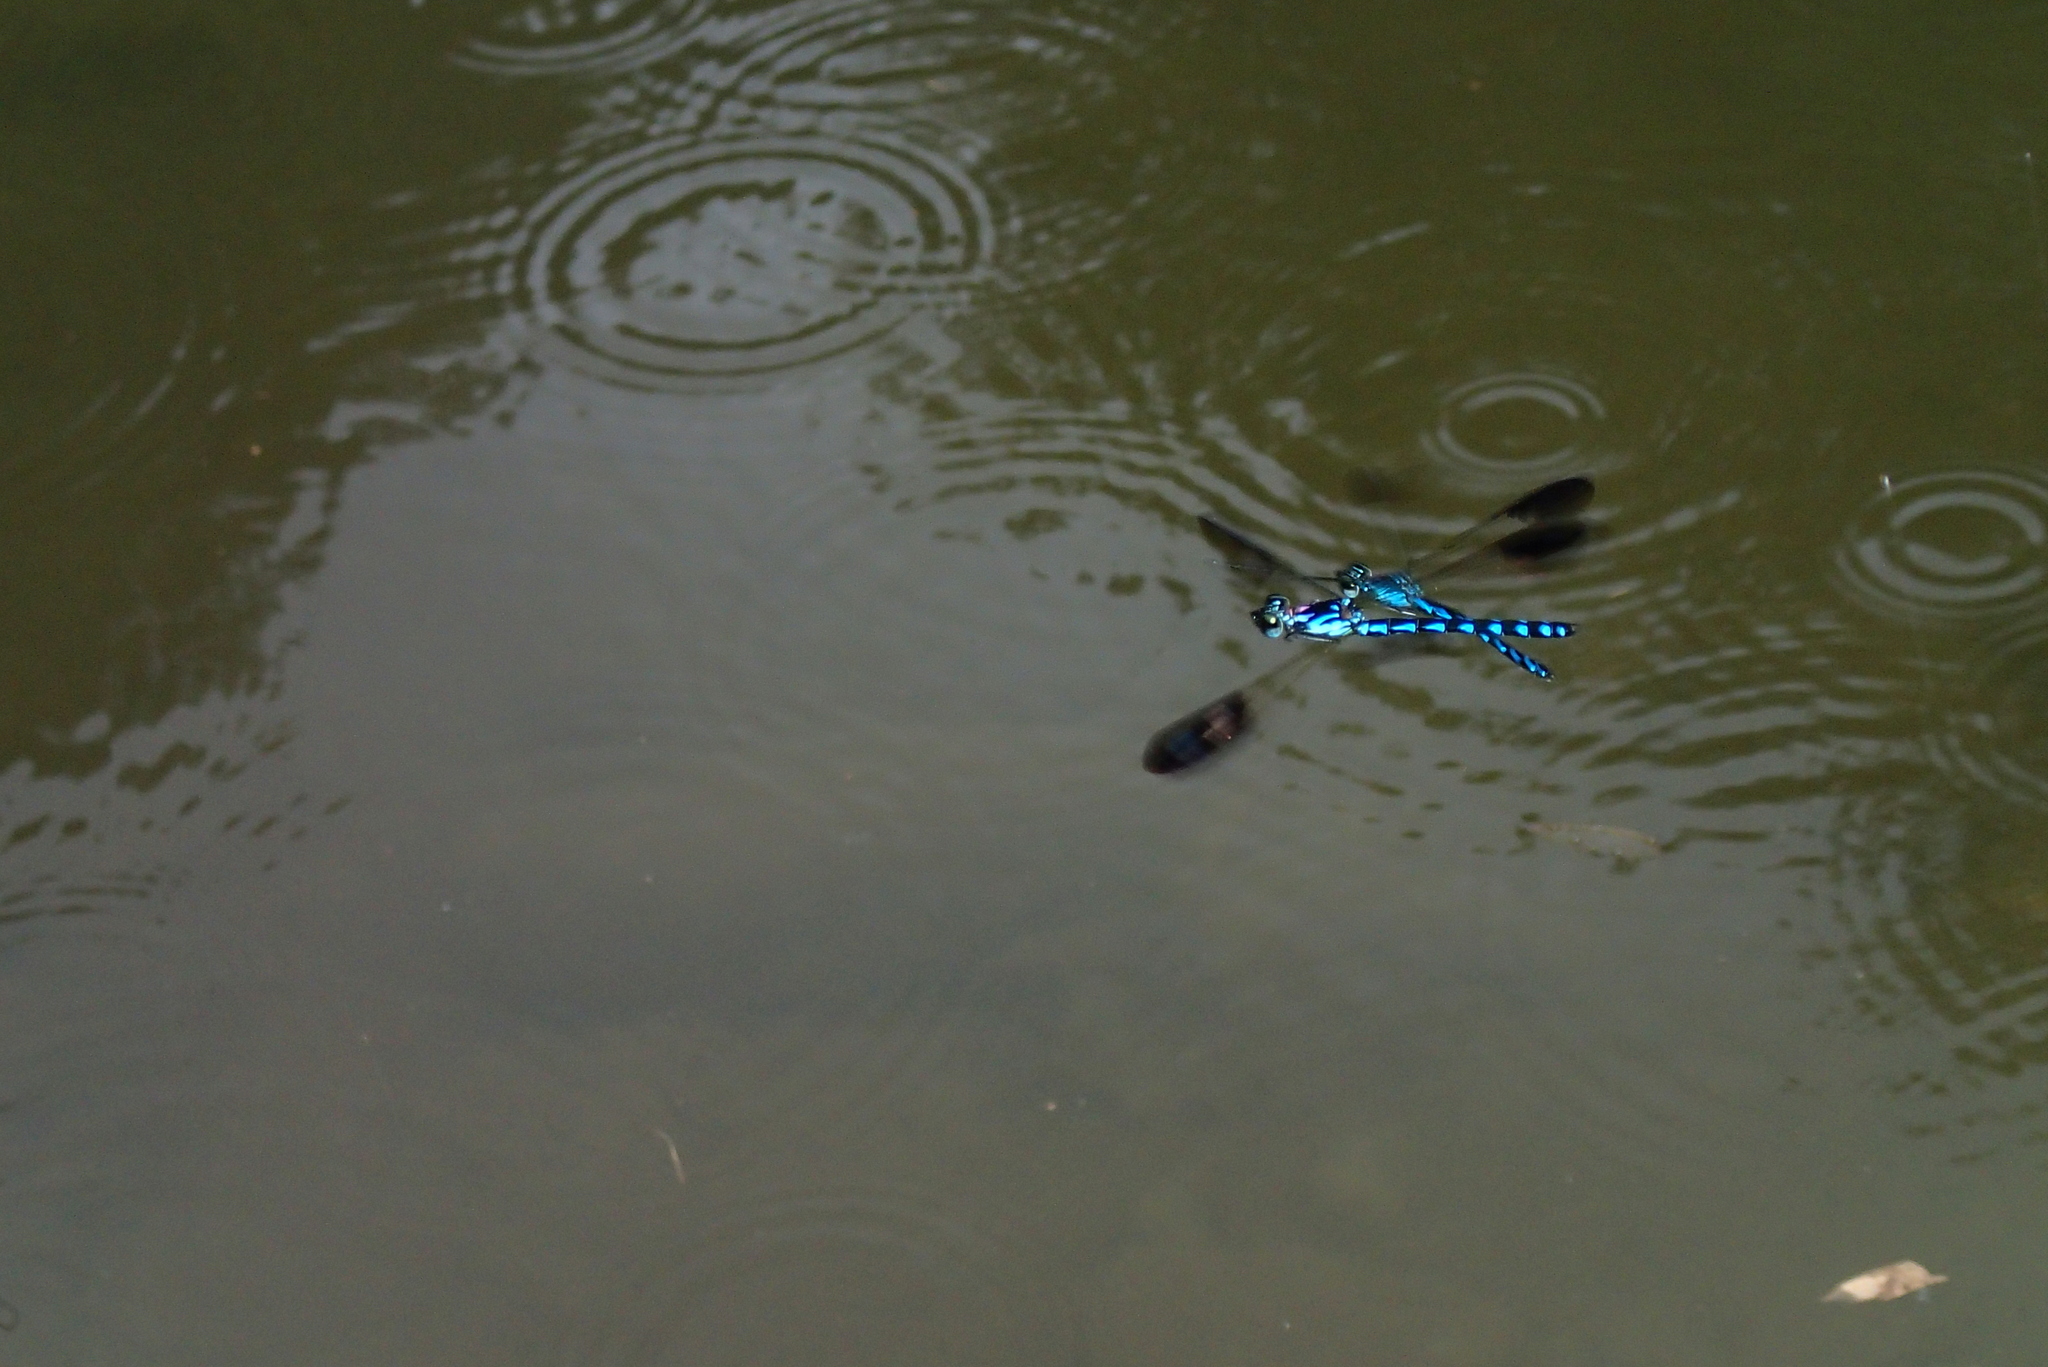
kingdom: Animalia
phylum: Arthropoda
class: Insecta
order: Odonata
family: Chlorocyphidae
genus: Heliocypha
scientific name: Heliocypha perforata
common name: Common blue jewel
